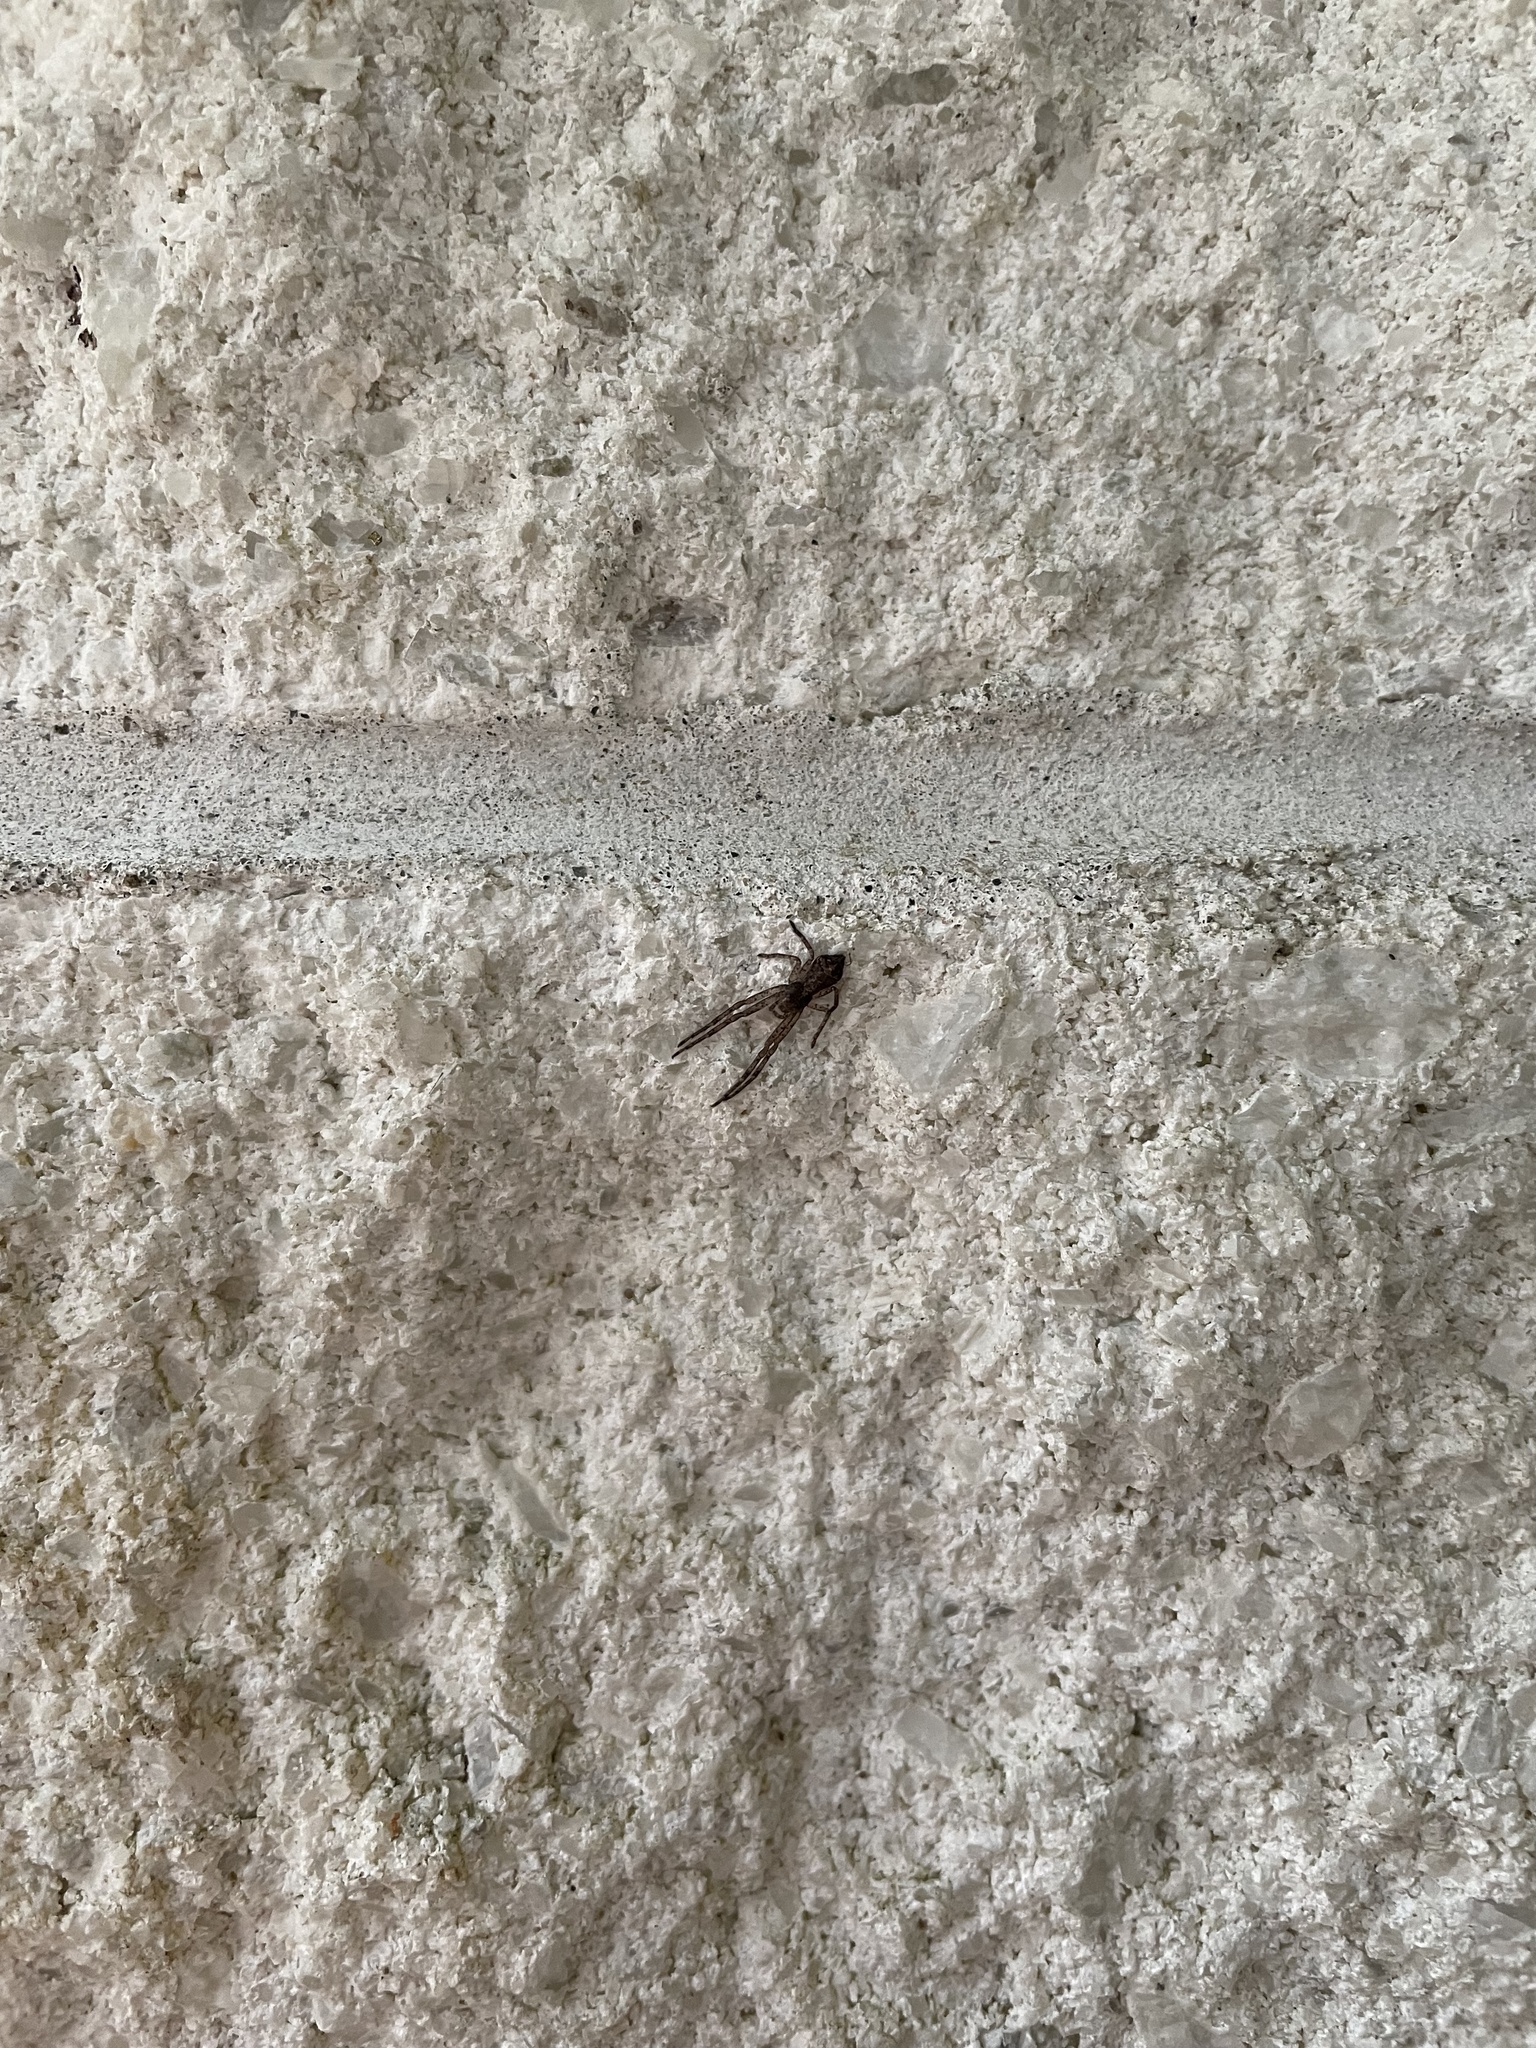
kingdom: Animalia
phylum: Arthropoda
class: Arachnida
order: Araneae
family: Thomisidae
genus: Tmarus
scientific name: Tmarus angulatus
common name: Tuberculated crab spider
